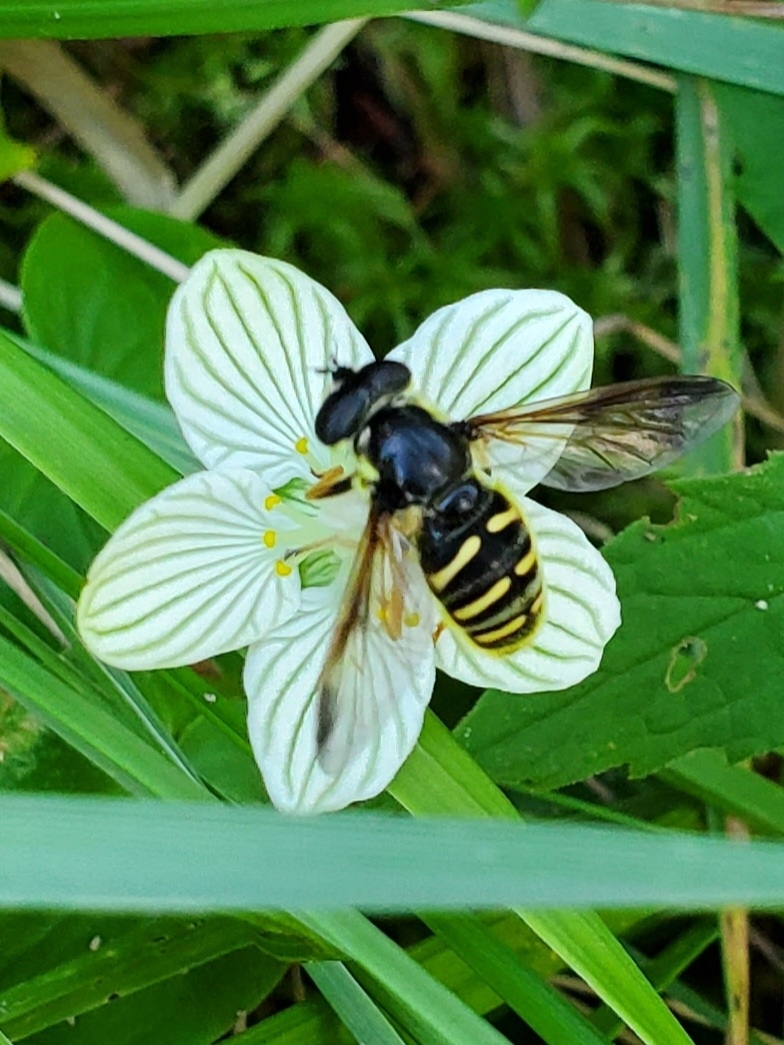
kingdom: Animalia
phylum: Arthropoda
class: Insecta
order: Diptera
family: Syrphidae
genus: Sericomyia
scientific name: Sericomyia chrysotoxoides
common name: Oblique-banded pond fly
